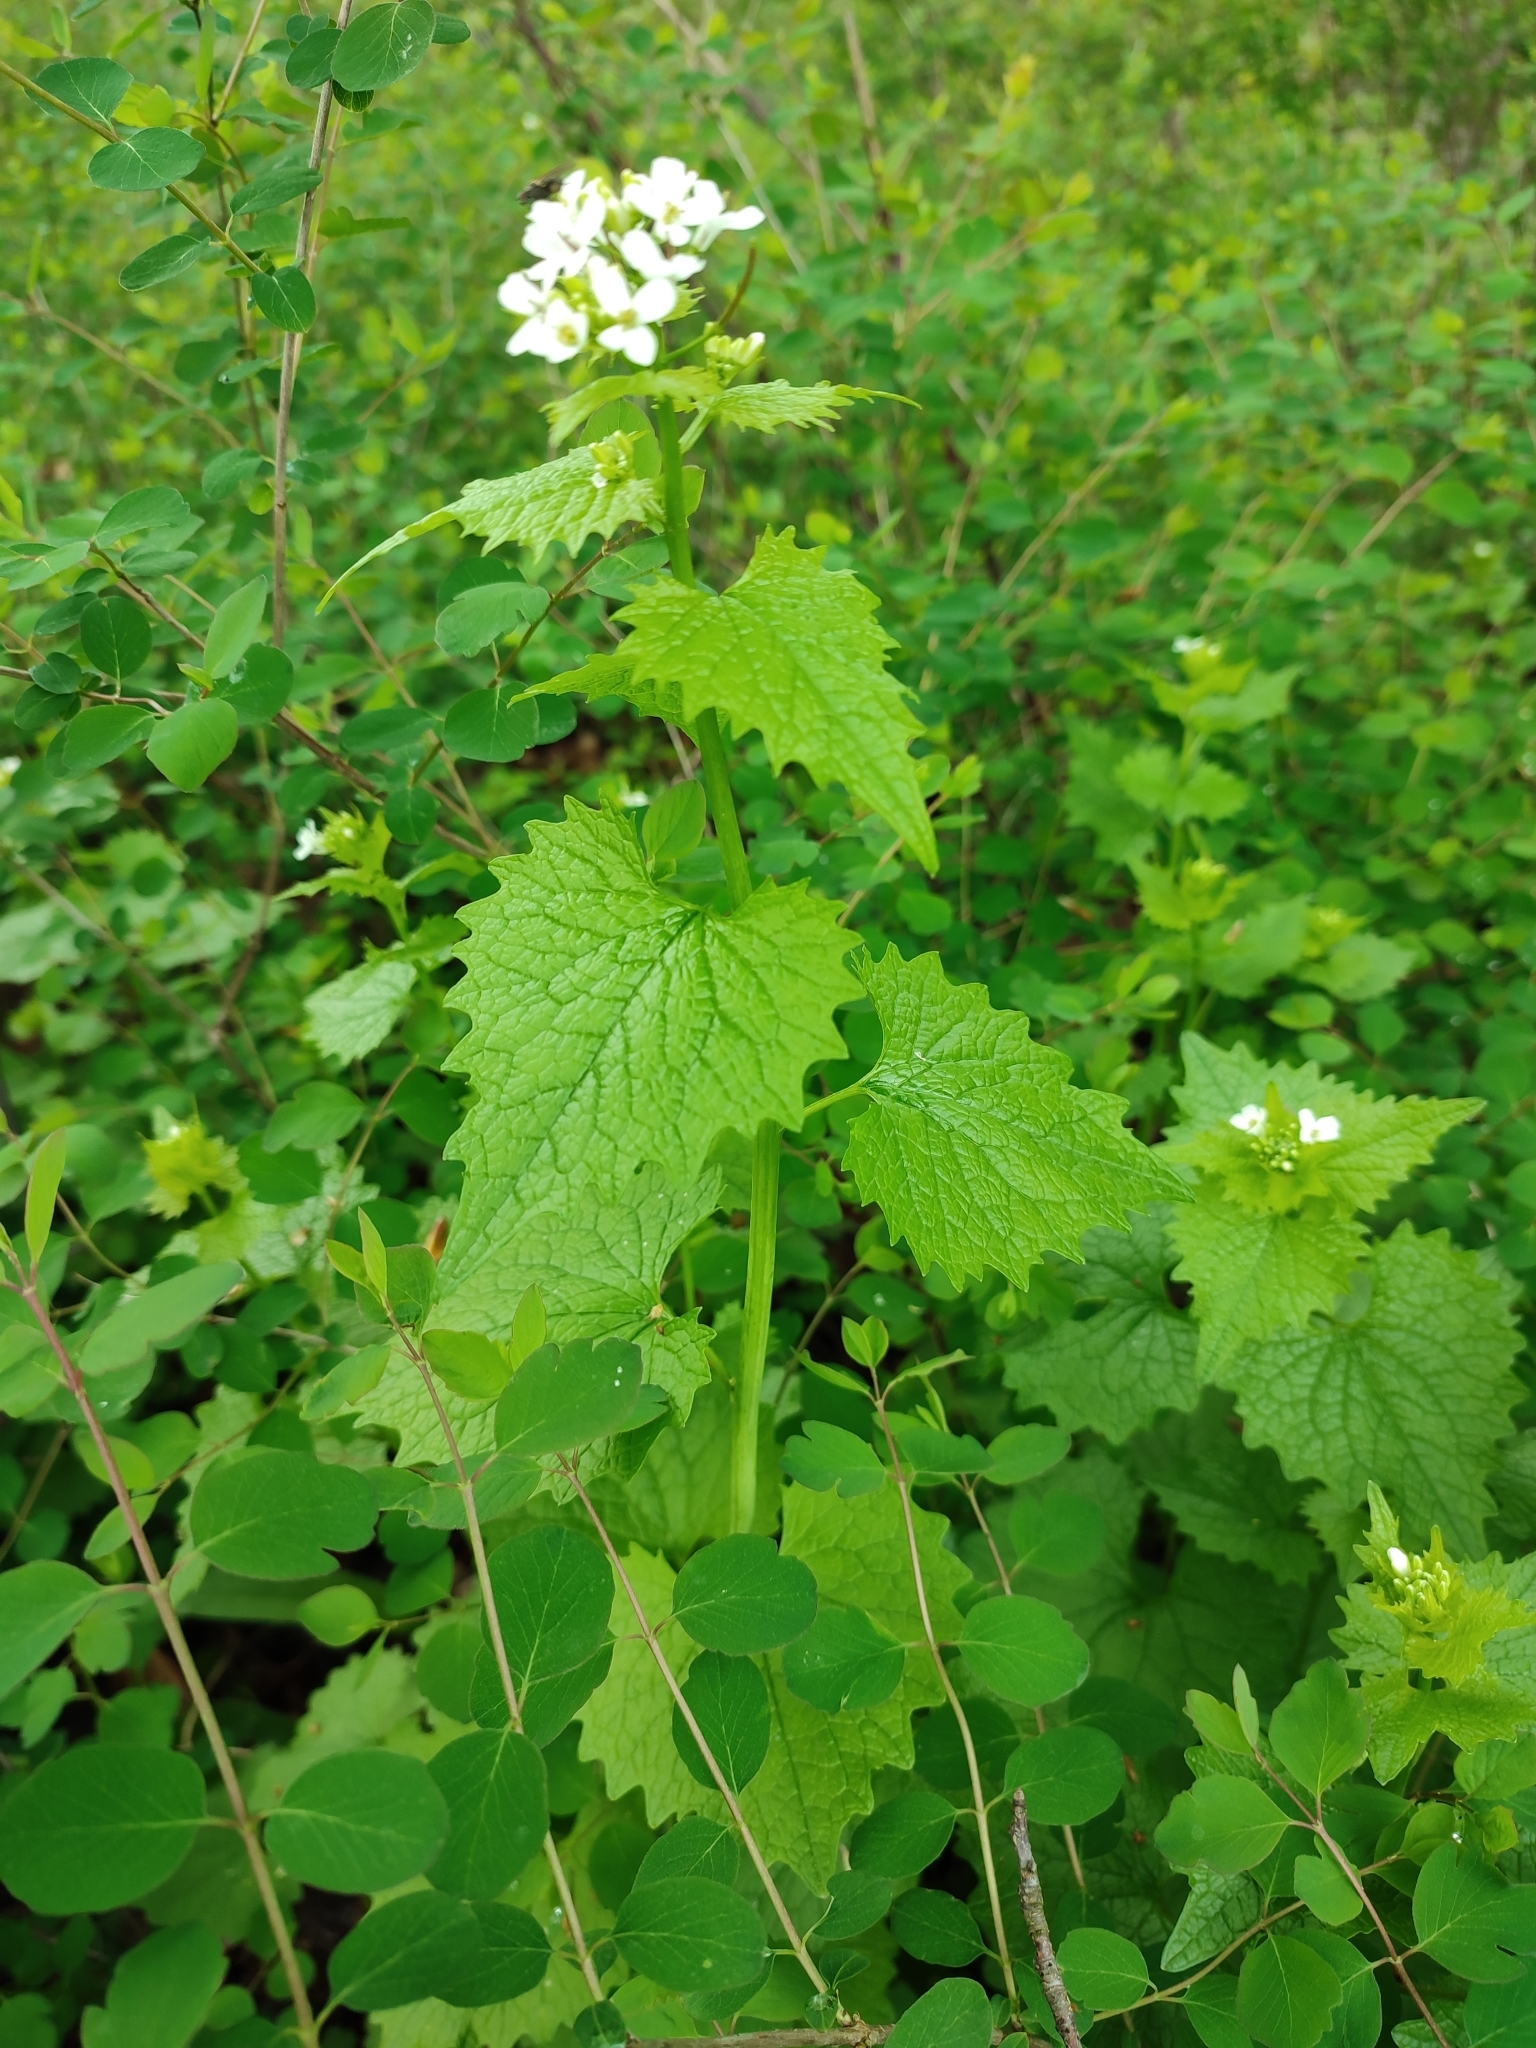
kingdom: Plantae
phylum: Tracheophyta
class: Magnoliopsida
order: Brassicales
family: Brassicaceae
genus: Alliaria
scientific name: Alliaria petiolata
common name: Garlic mustard
